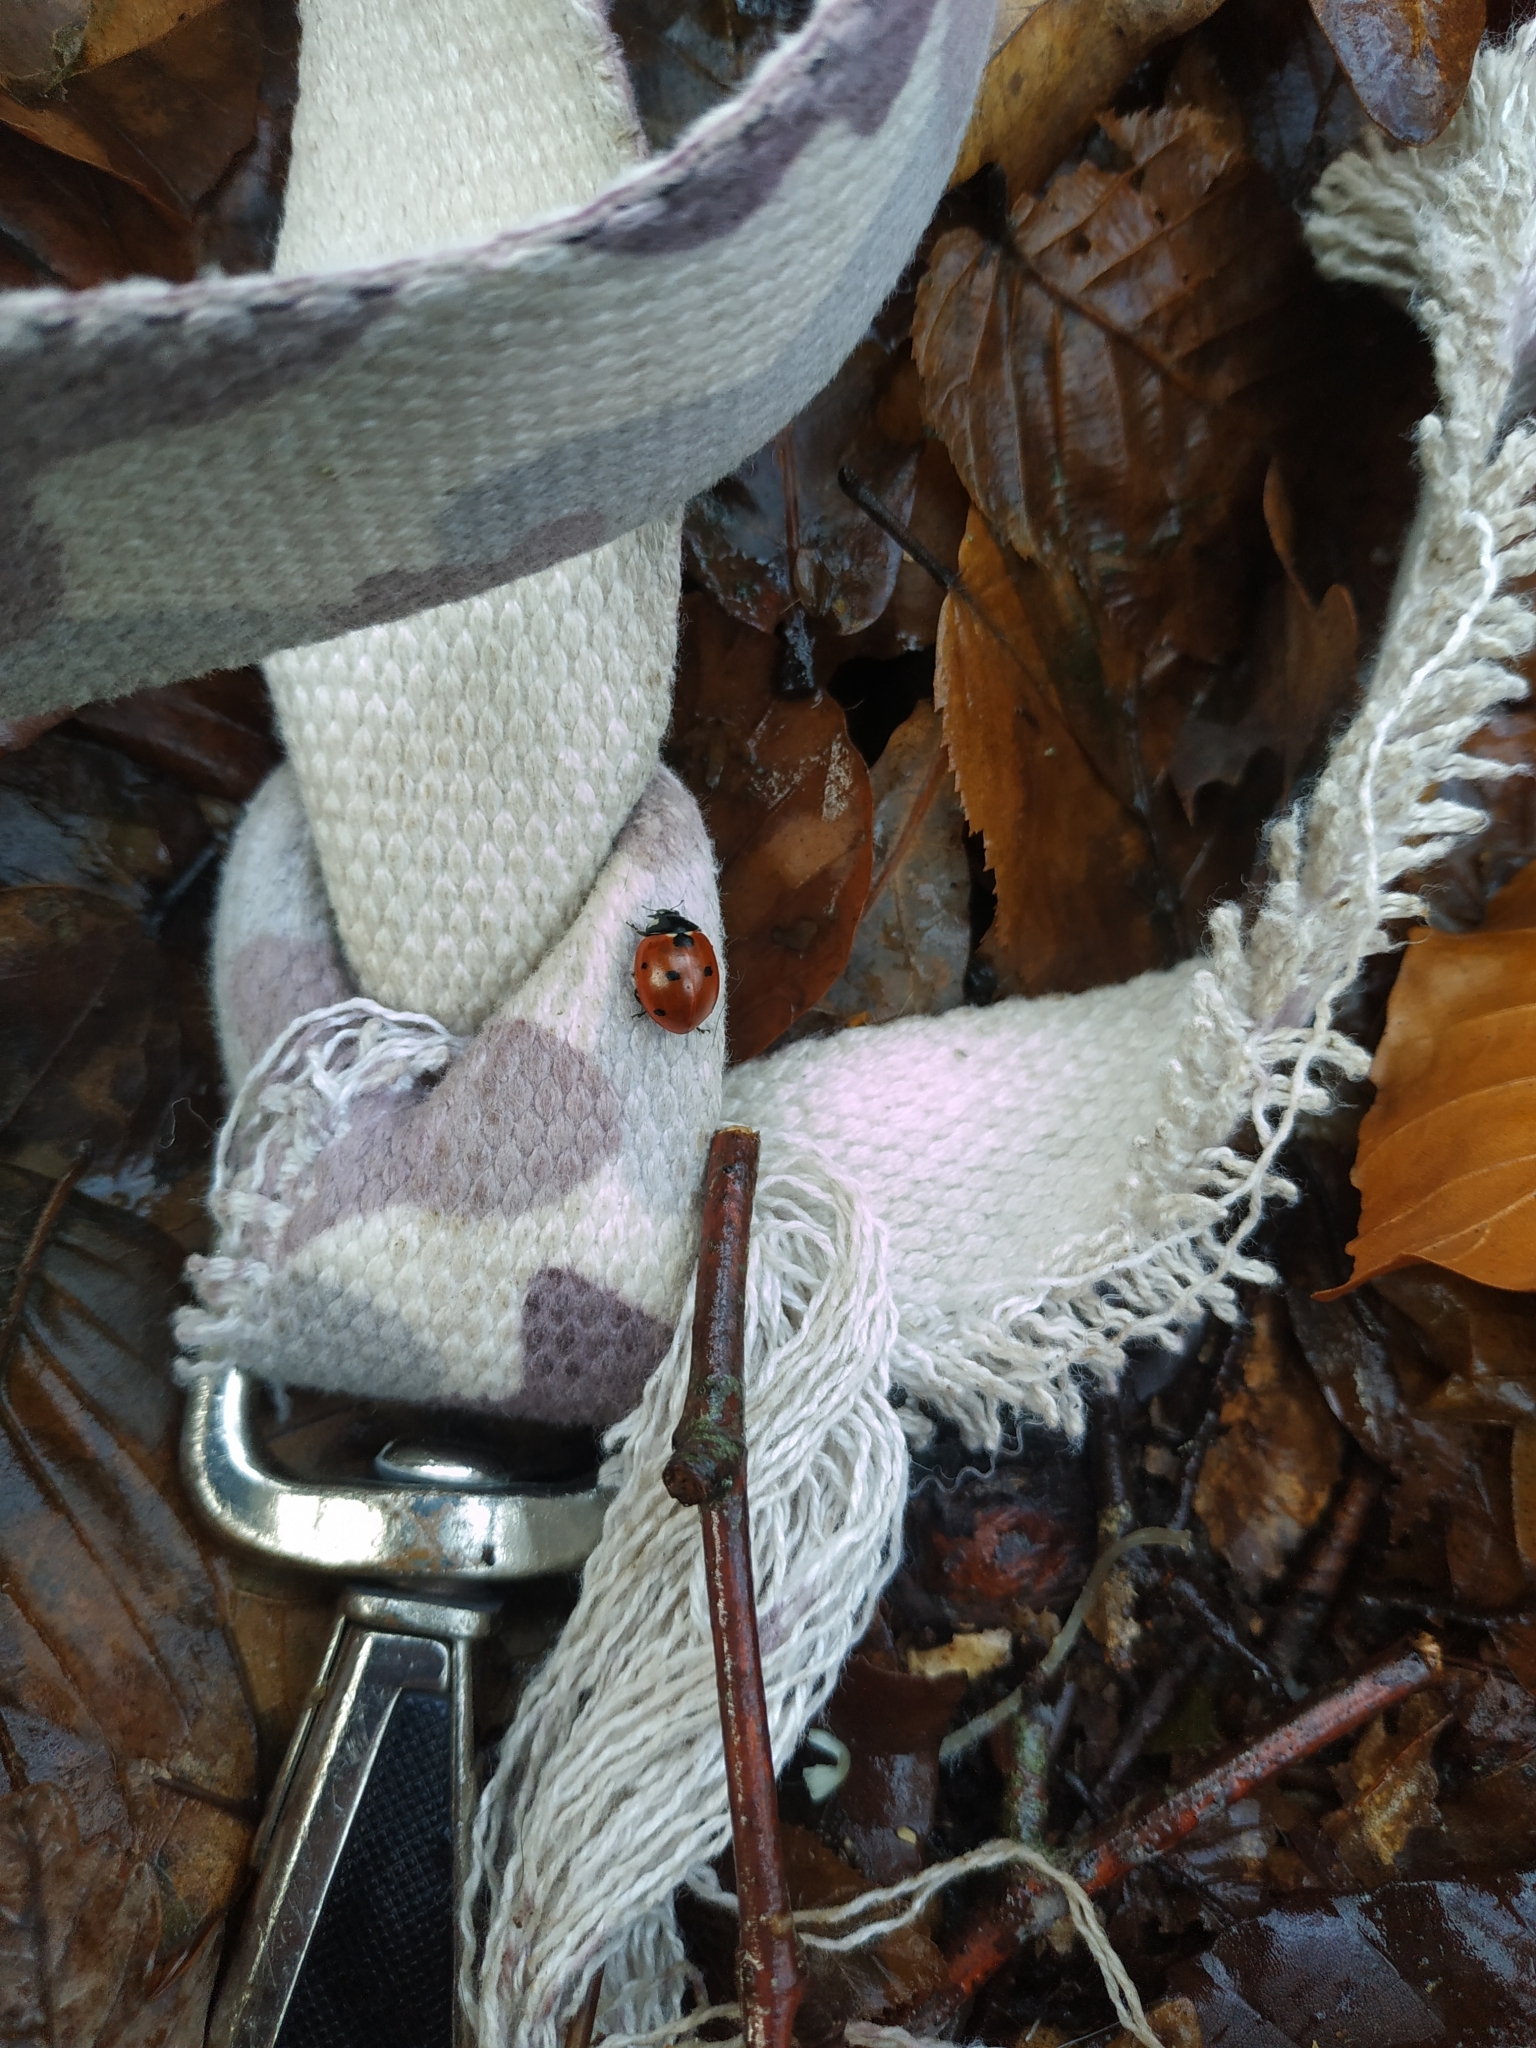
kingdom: Animalia
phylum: Arthropoda
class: Insecta
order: Coleoptera
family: Coccinellidae
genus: Coccinella
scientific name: Coccinella septempunctata
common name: Sevenspotted lady beetle
